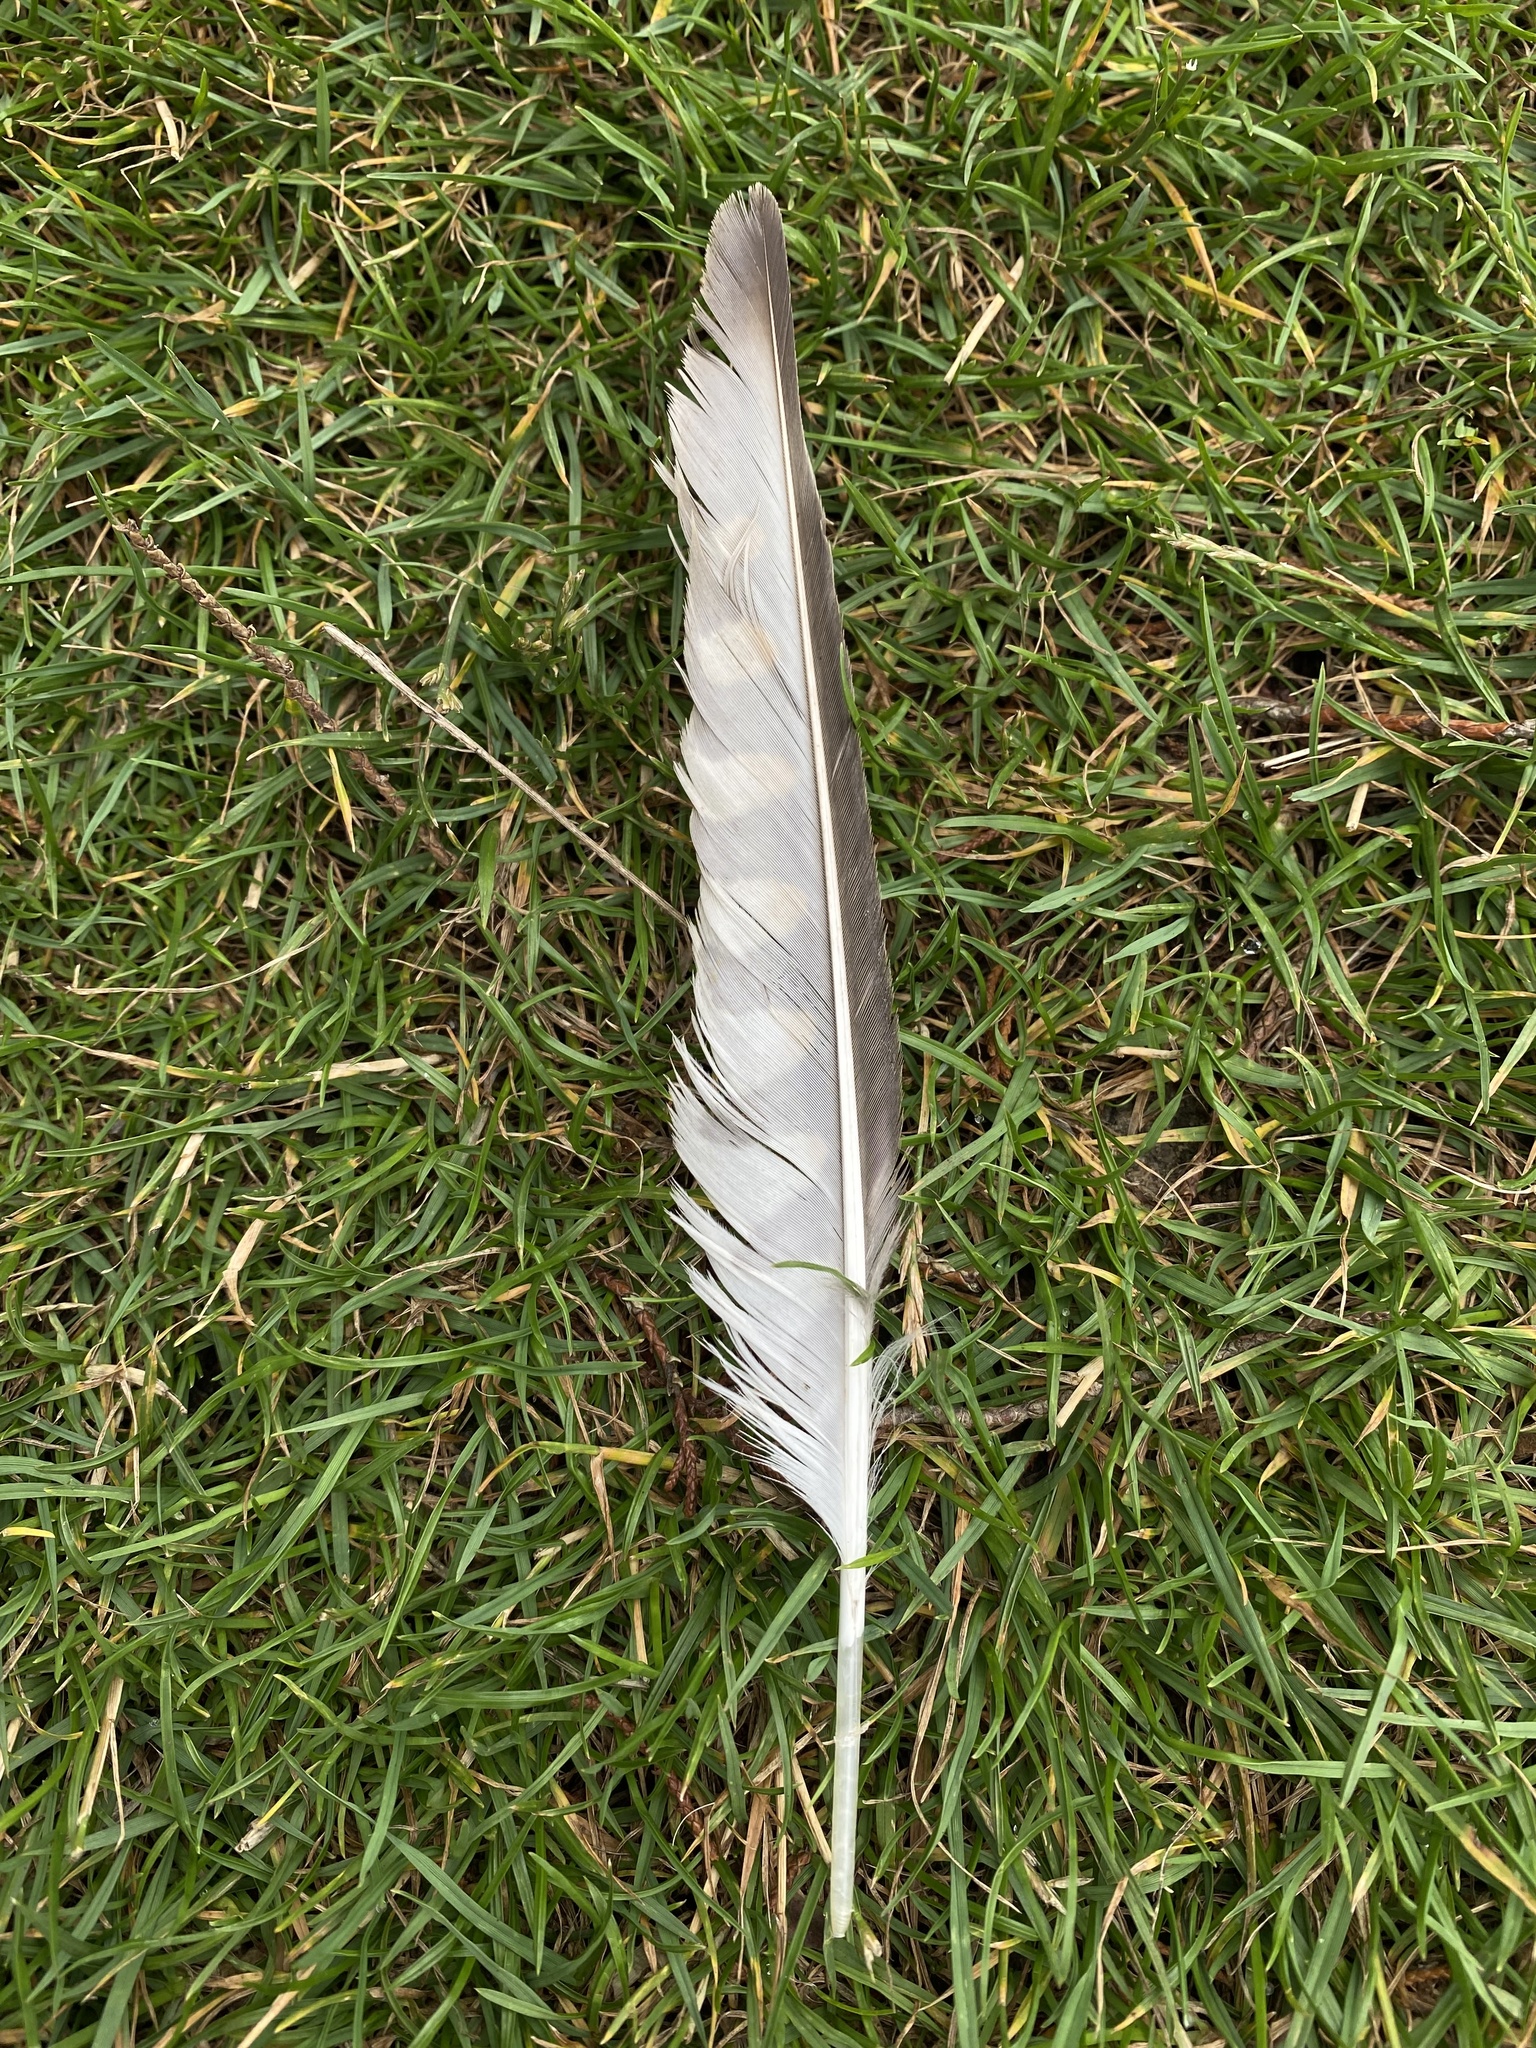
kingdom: Animalia
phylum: Chordata
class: Aves
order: Falconiformes
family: Falconidae
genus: Falco
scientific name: Falco tinnunculus
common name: Common kestrel
